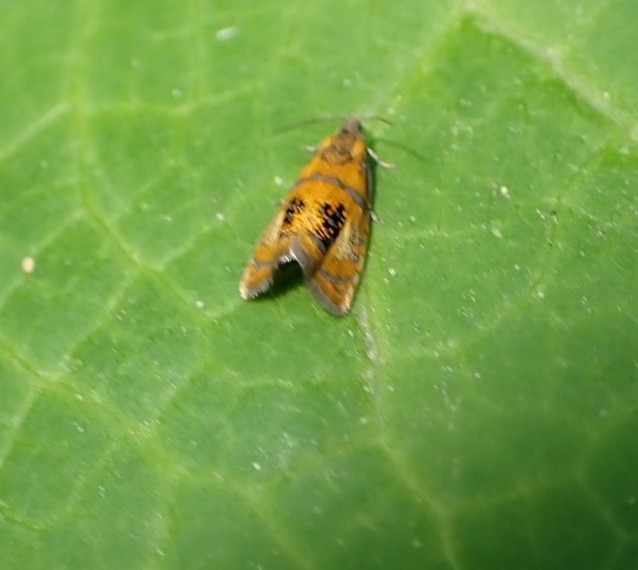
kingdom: Animalia
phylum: Arthropoda
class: Insecta
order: Lepidoptera
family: Tortricidae
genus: Olethreutes
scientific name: Olethreutes arcuella
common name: Arched marble
